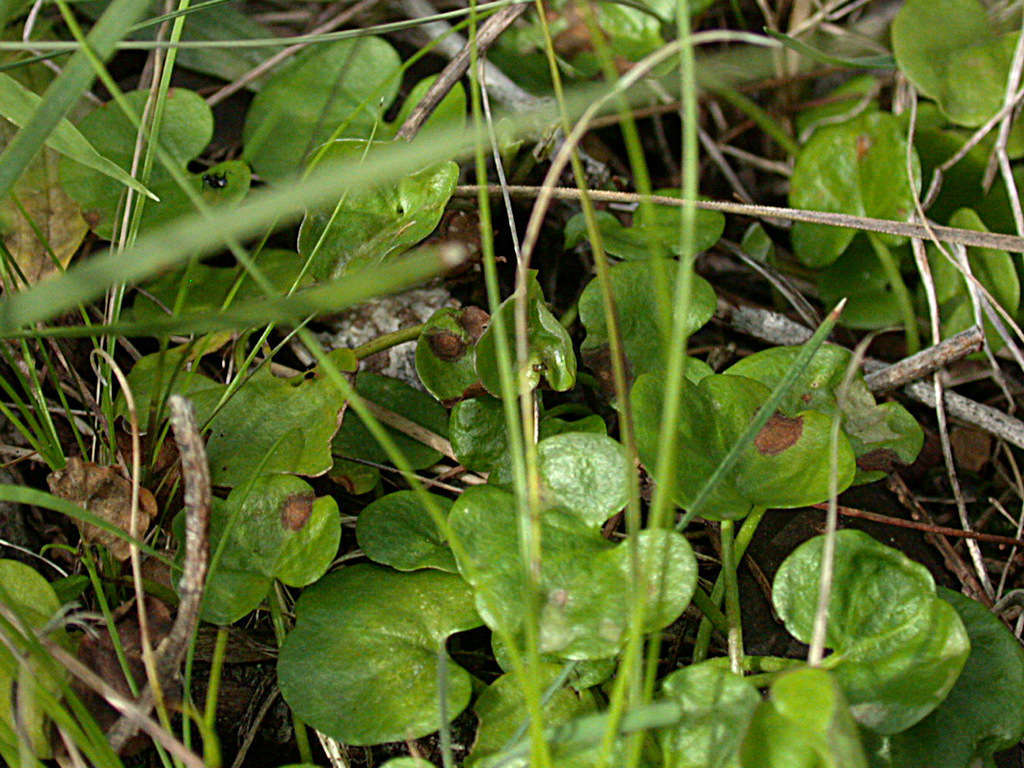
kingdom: Plantae
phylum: Tracheophyta
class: Magnoliopsida
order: Solanales
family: Convolvulaceae
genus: Dichondra
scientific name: Dichondra repens
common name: Kidneyweed
